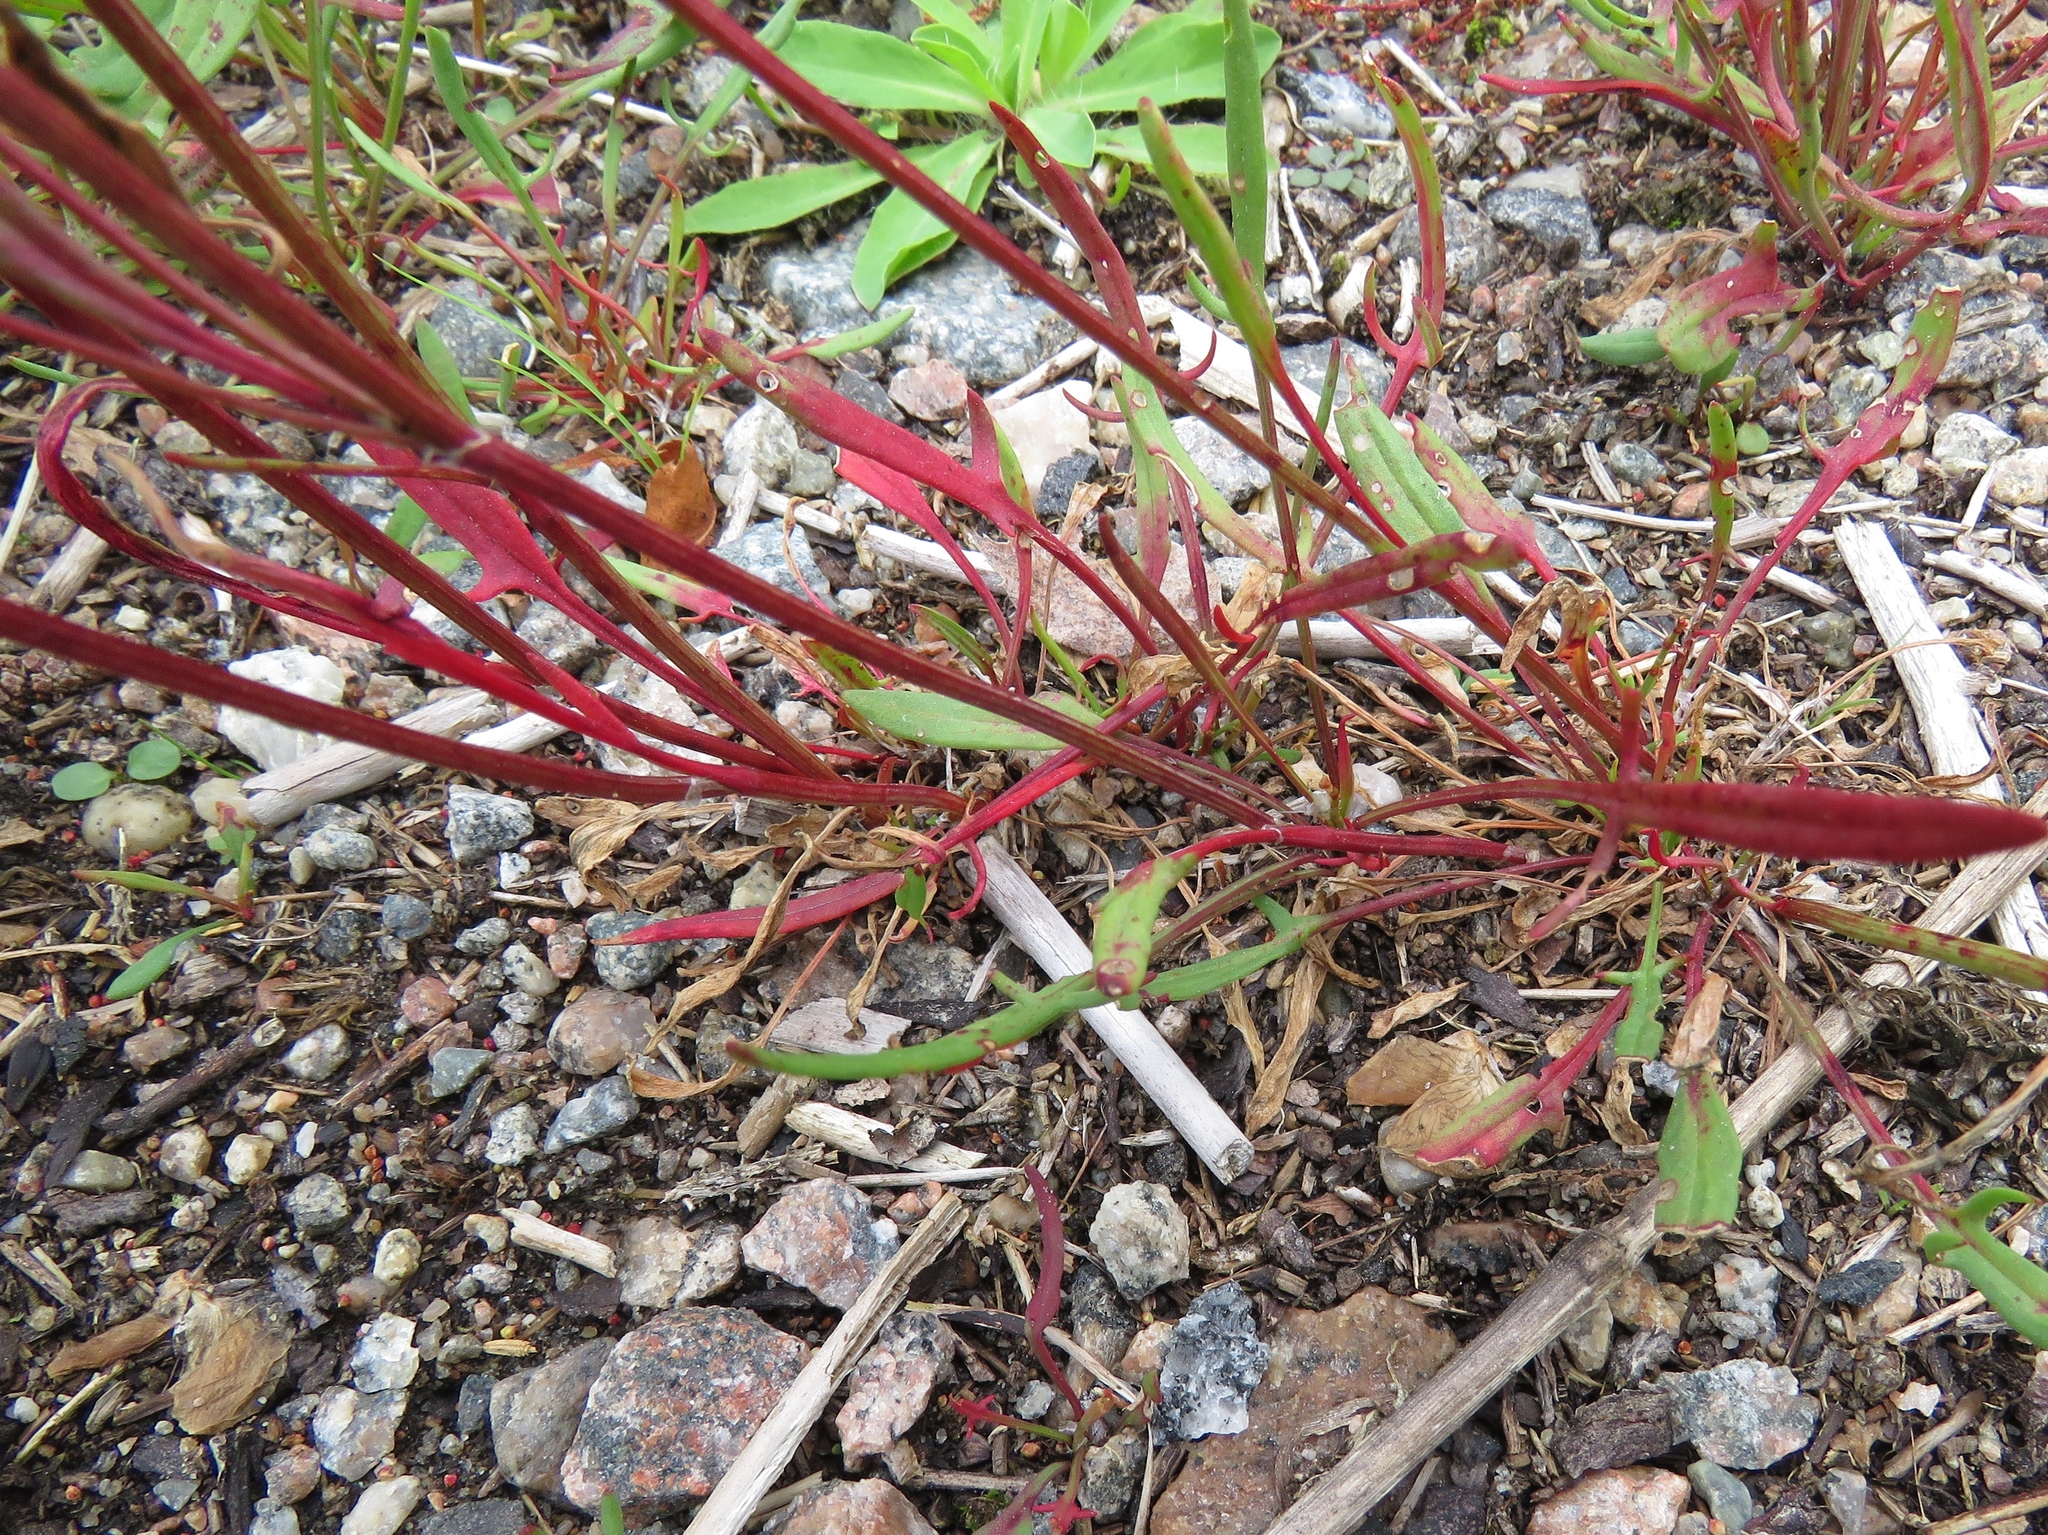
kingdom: Plantae
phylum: Tracheophyta
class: Magnoliopsida
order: Caryophyllales
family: Polygonaceae
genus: Rumex
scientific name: Rumex acetosella
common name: Common sheep sorrel
